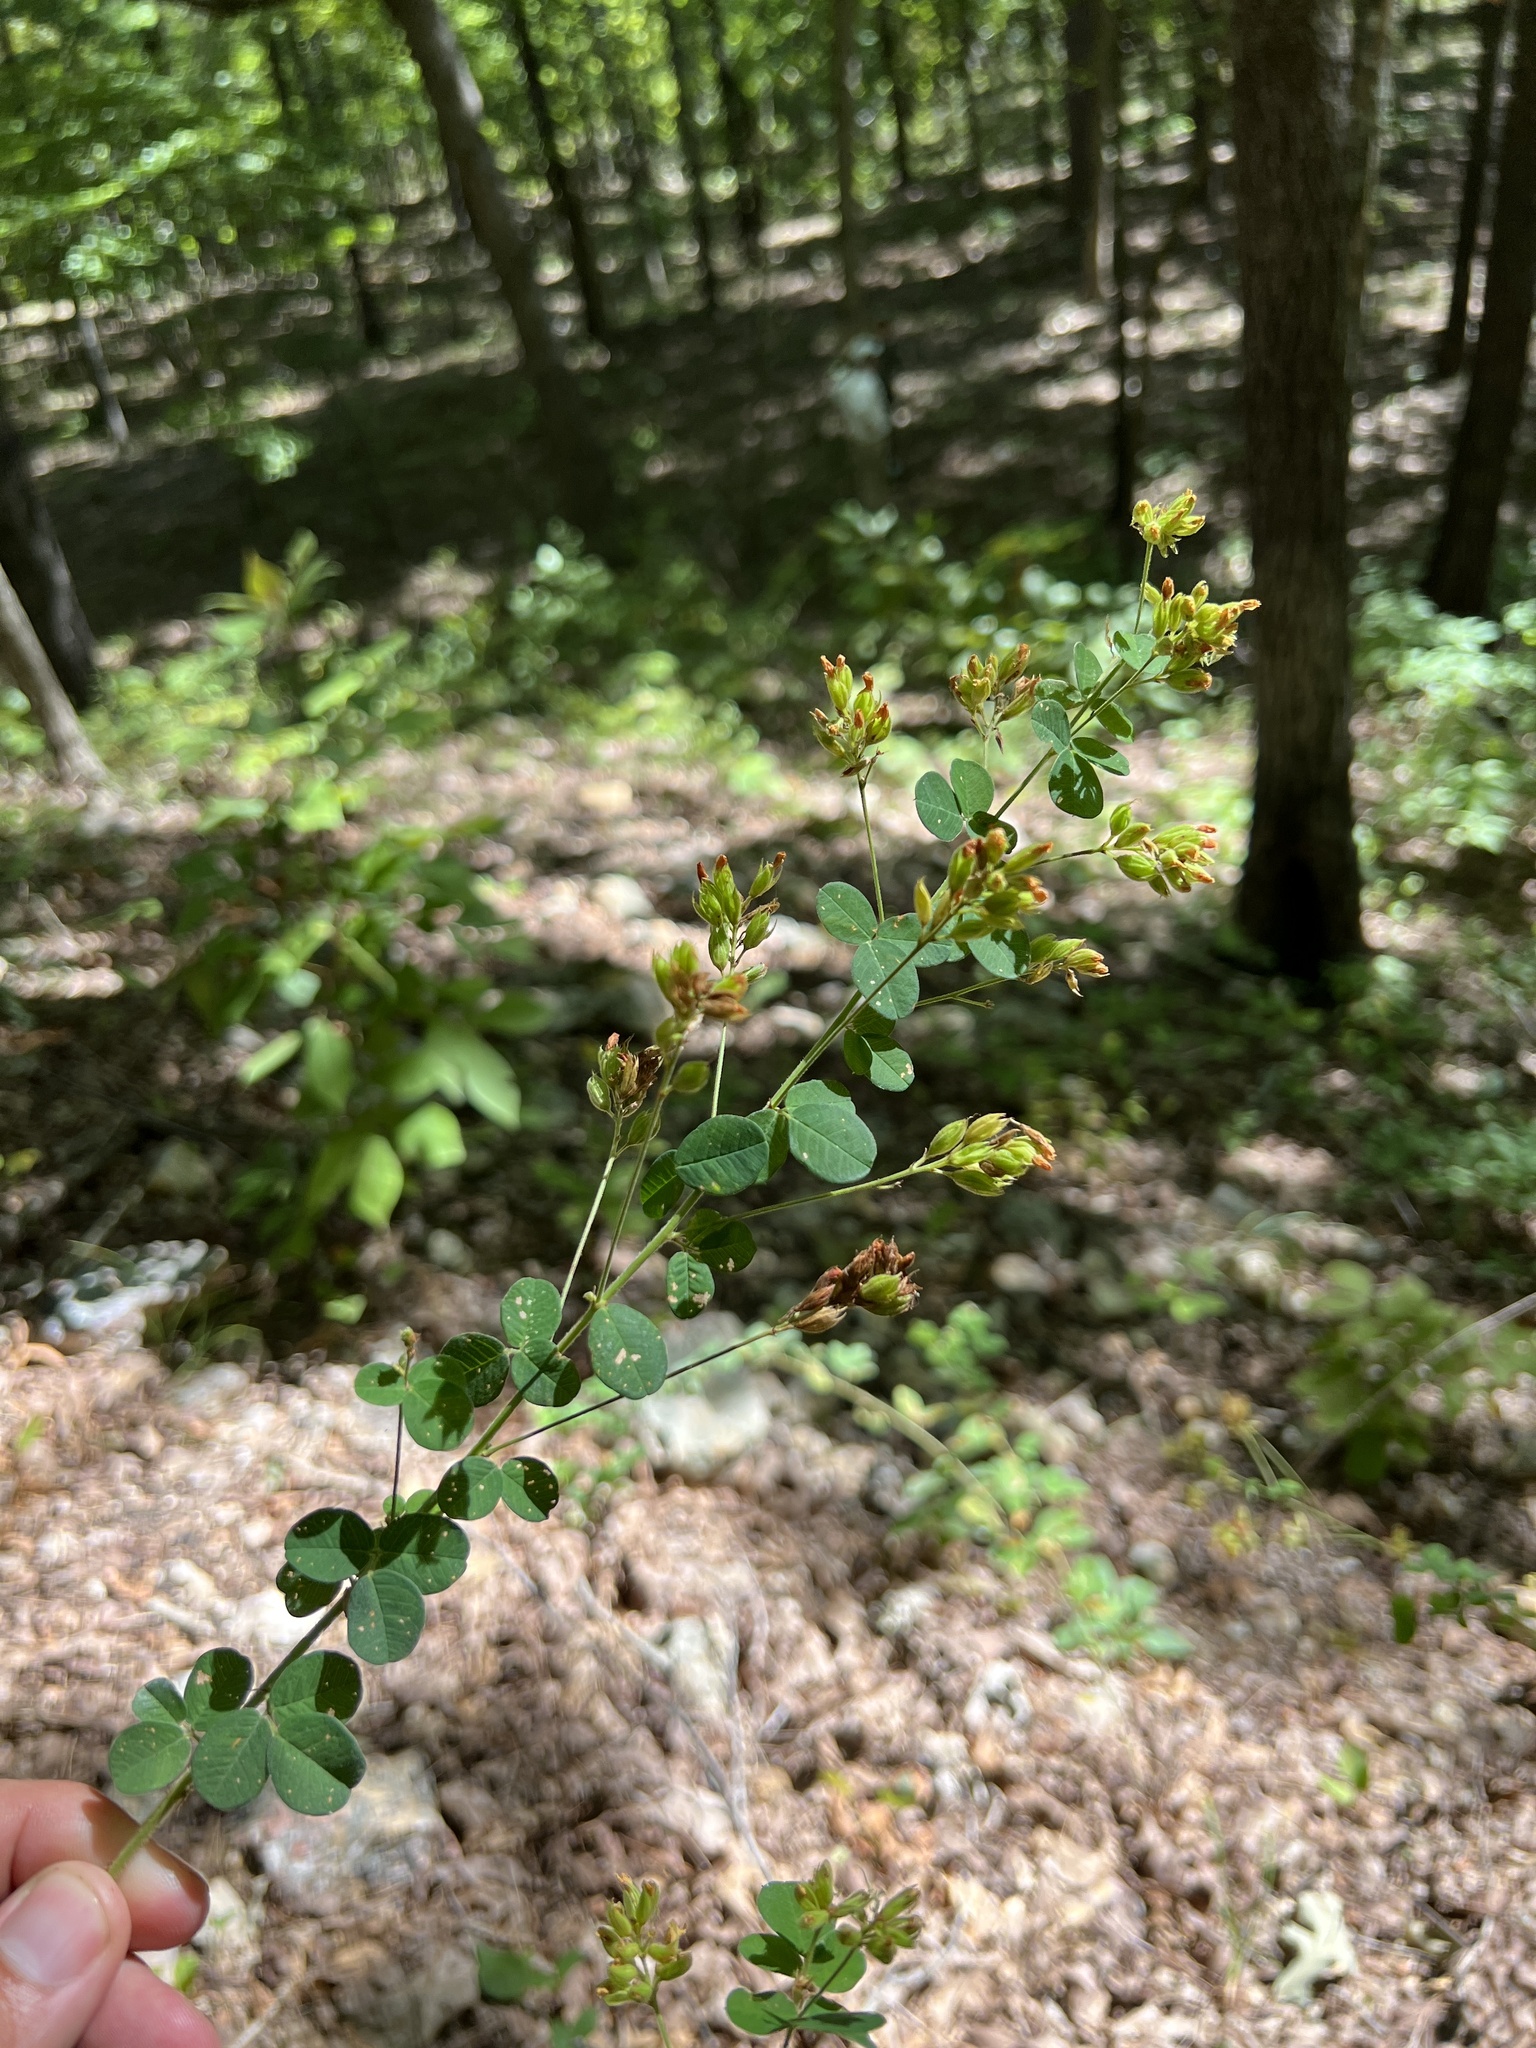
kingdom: Plantae
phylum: Tracheophyta
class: Magnoliopsida
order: Fabales
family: Fabaceae
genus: Lespedeza
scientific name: Lespedeza hirta
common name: Hairy lespedeza
